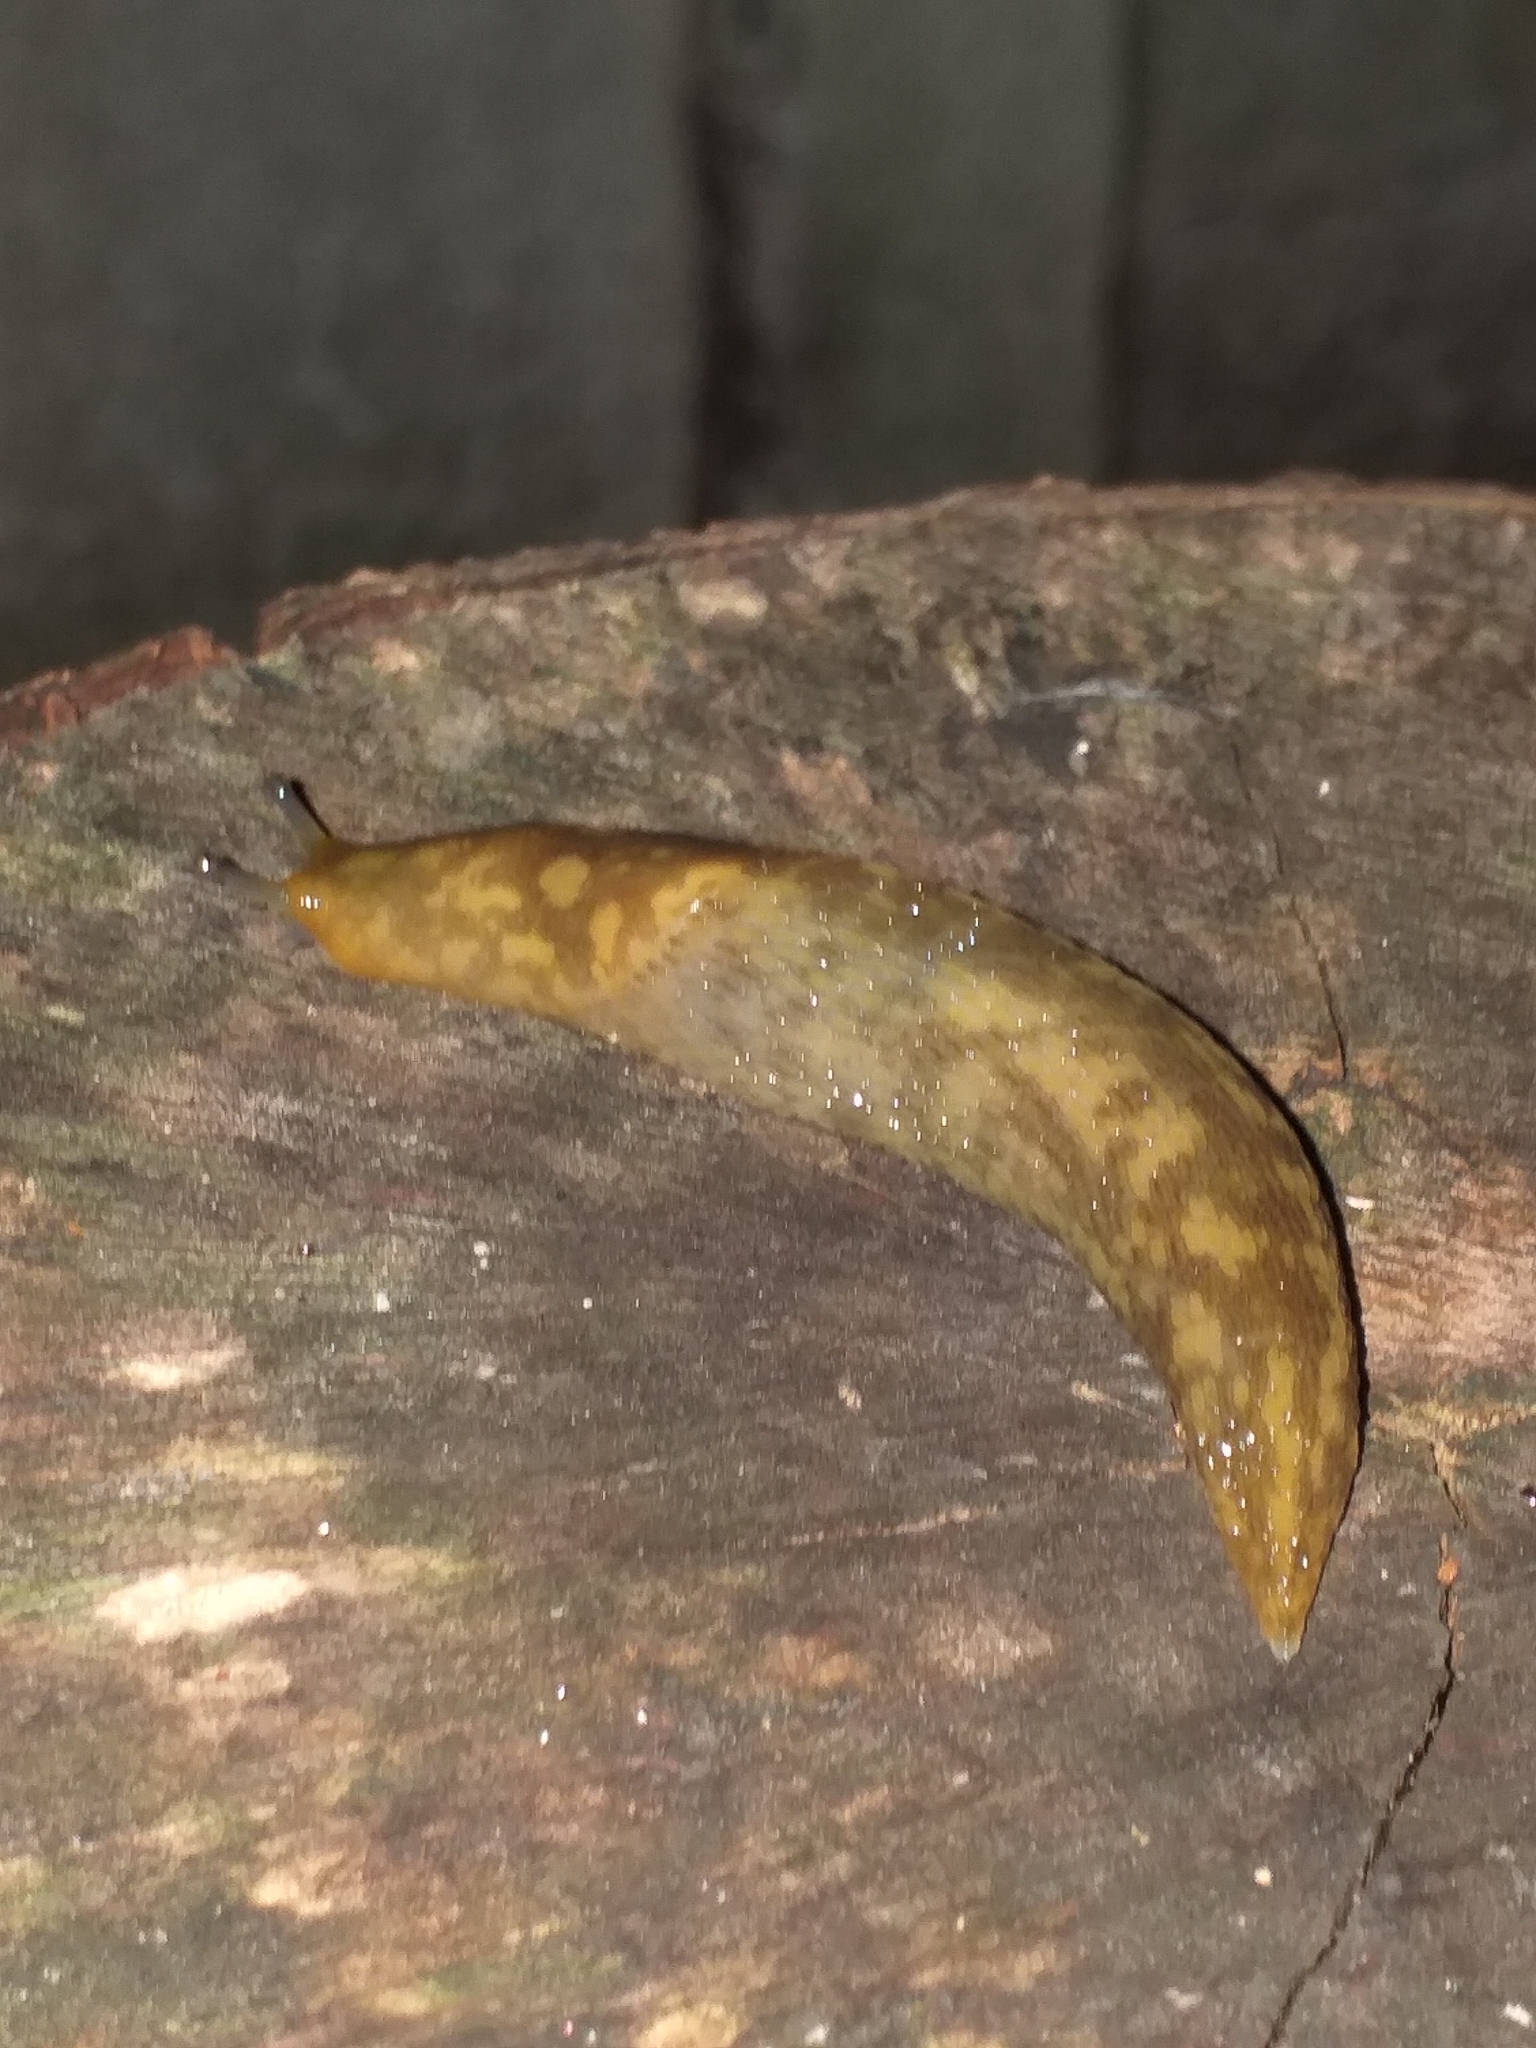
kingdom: Animalia
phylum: Mollusca
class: Gastropoda
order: Stylommatophora
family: Limacidae
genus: Limacus
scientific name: Limacus maculatus
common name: Irish yellow slug
